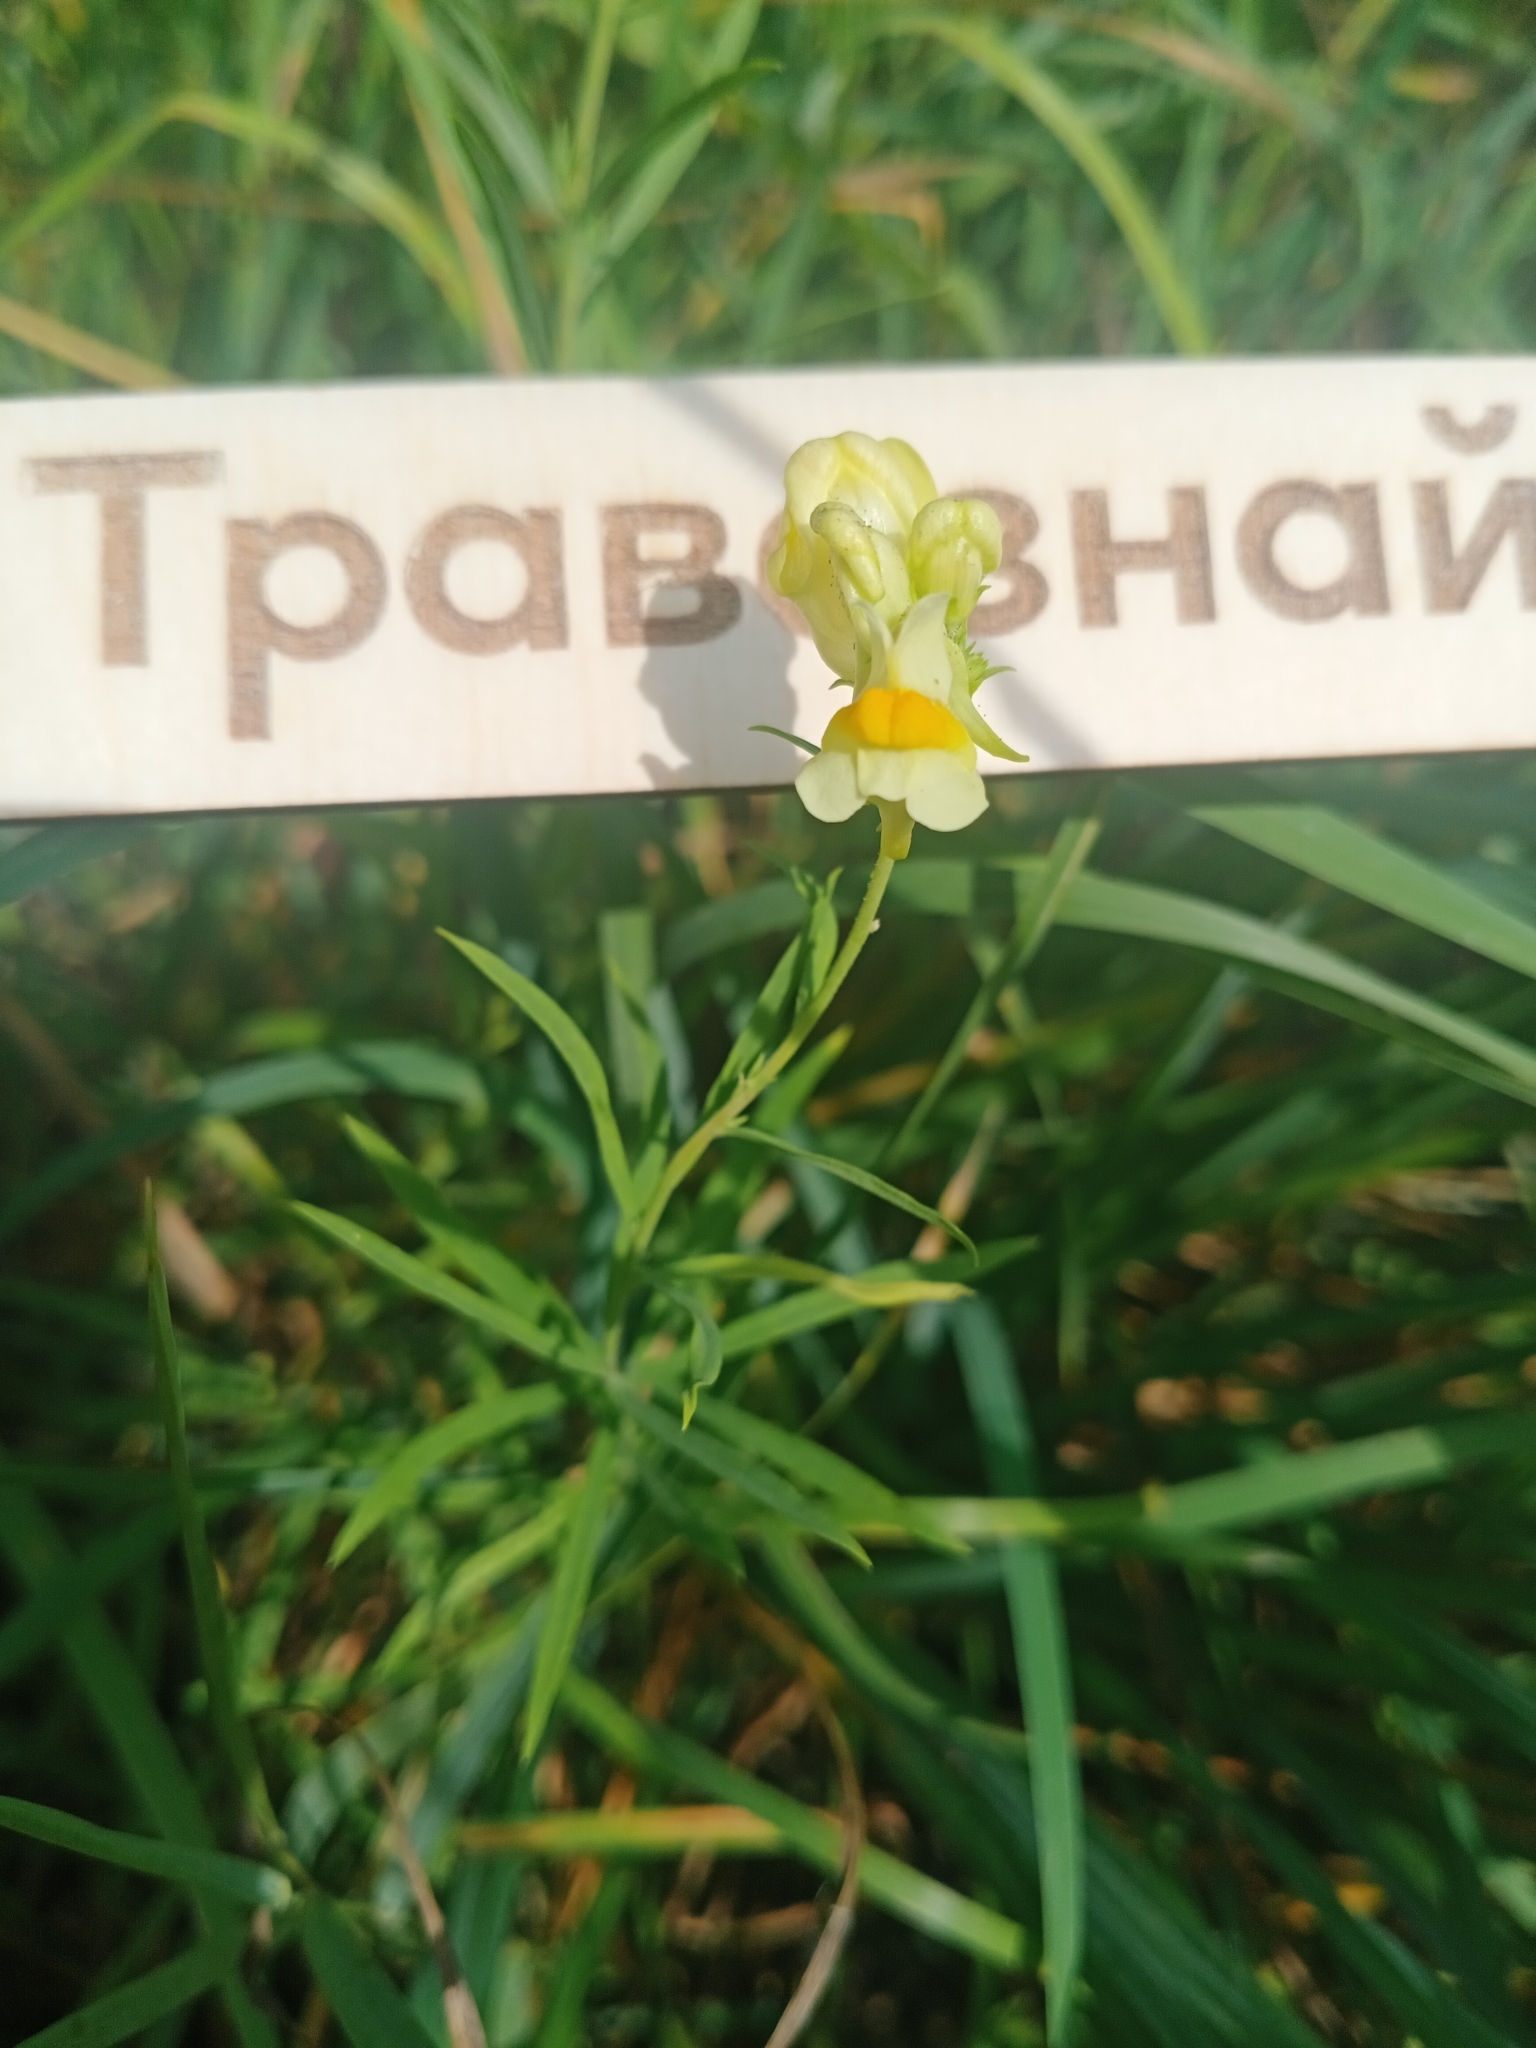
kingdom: Plantae
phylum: Tracheophyta
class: Magnoliopsida
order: Lamiales
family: Plantaginaceae
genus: Linaria
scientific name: Linaria vulgaris
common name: Butter and eggs
